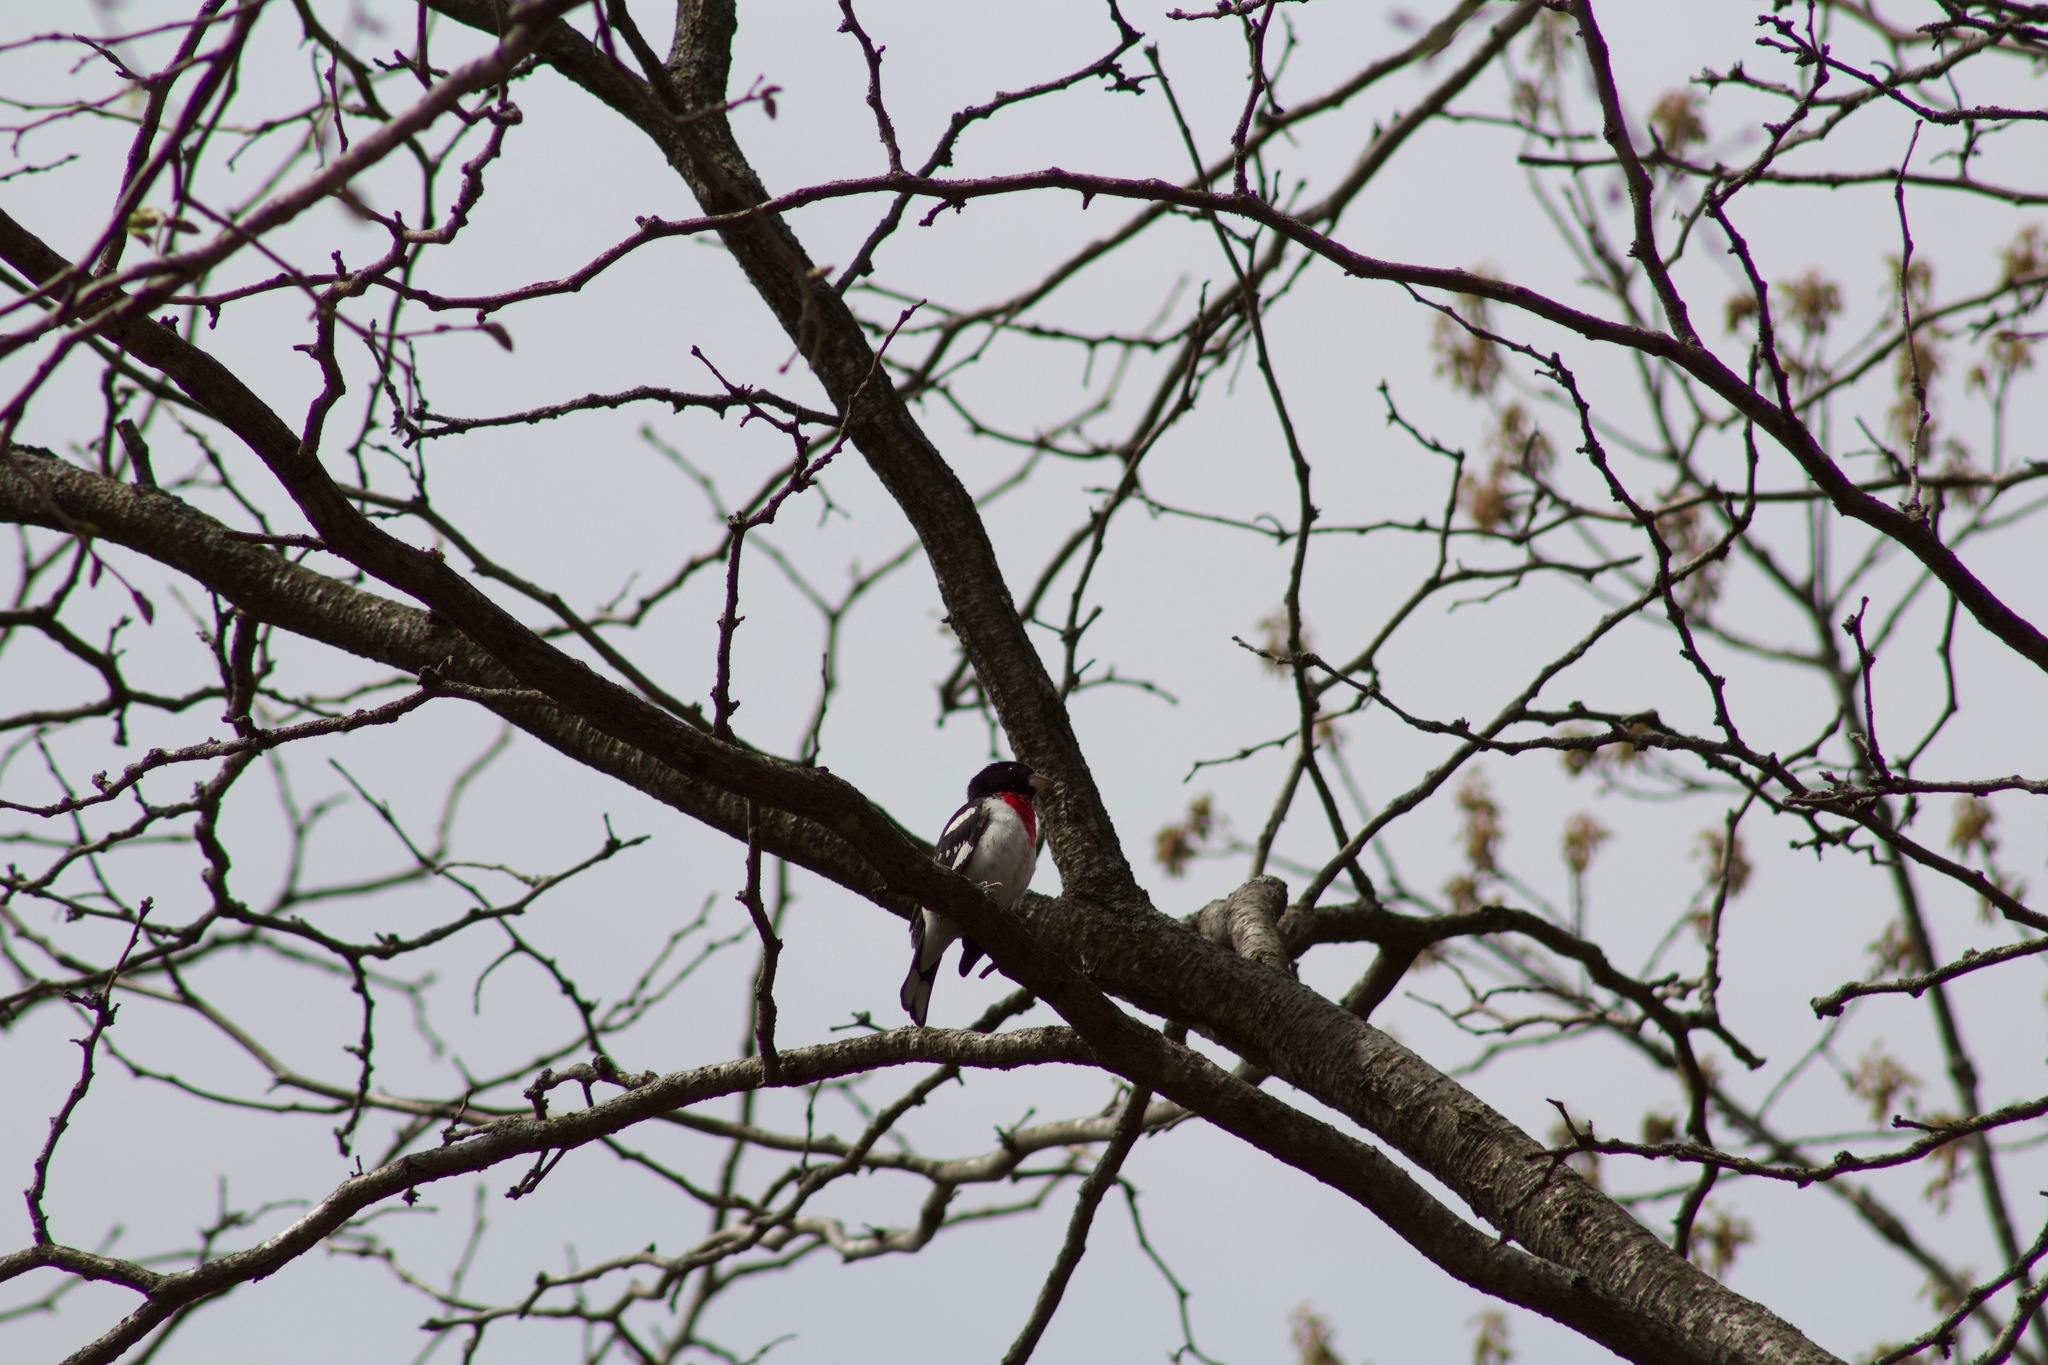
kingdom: Animalia
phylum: Chordata
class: Aves
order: Passeriformes
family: Cardinalidae
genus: Pheucticus
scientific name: Pheucticus ludovicianus
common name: Rose-breasted grosbeak
